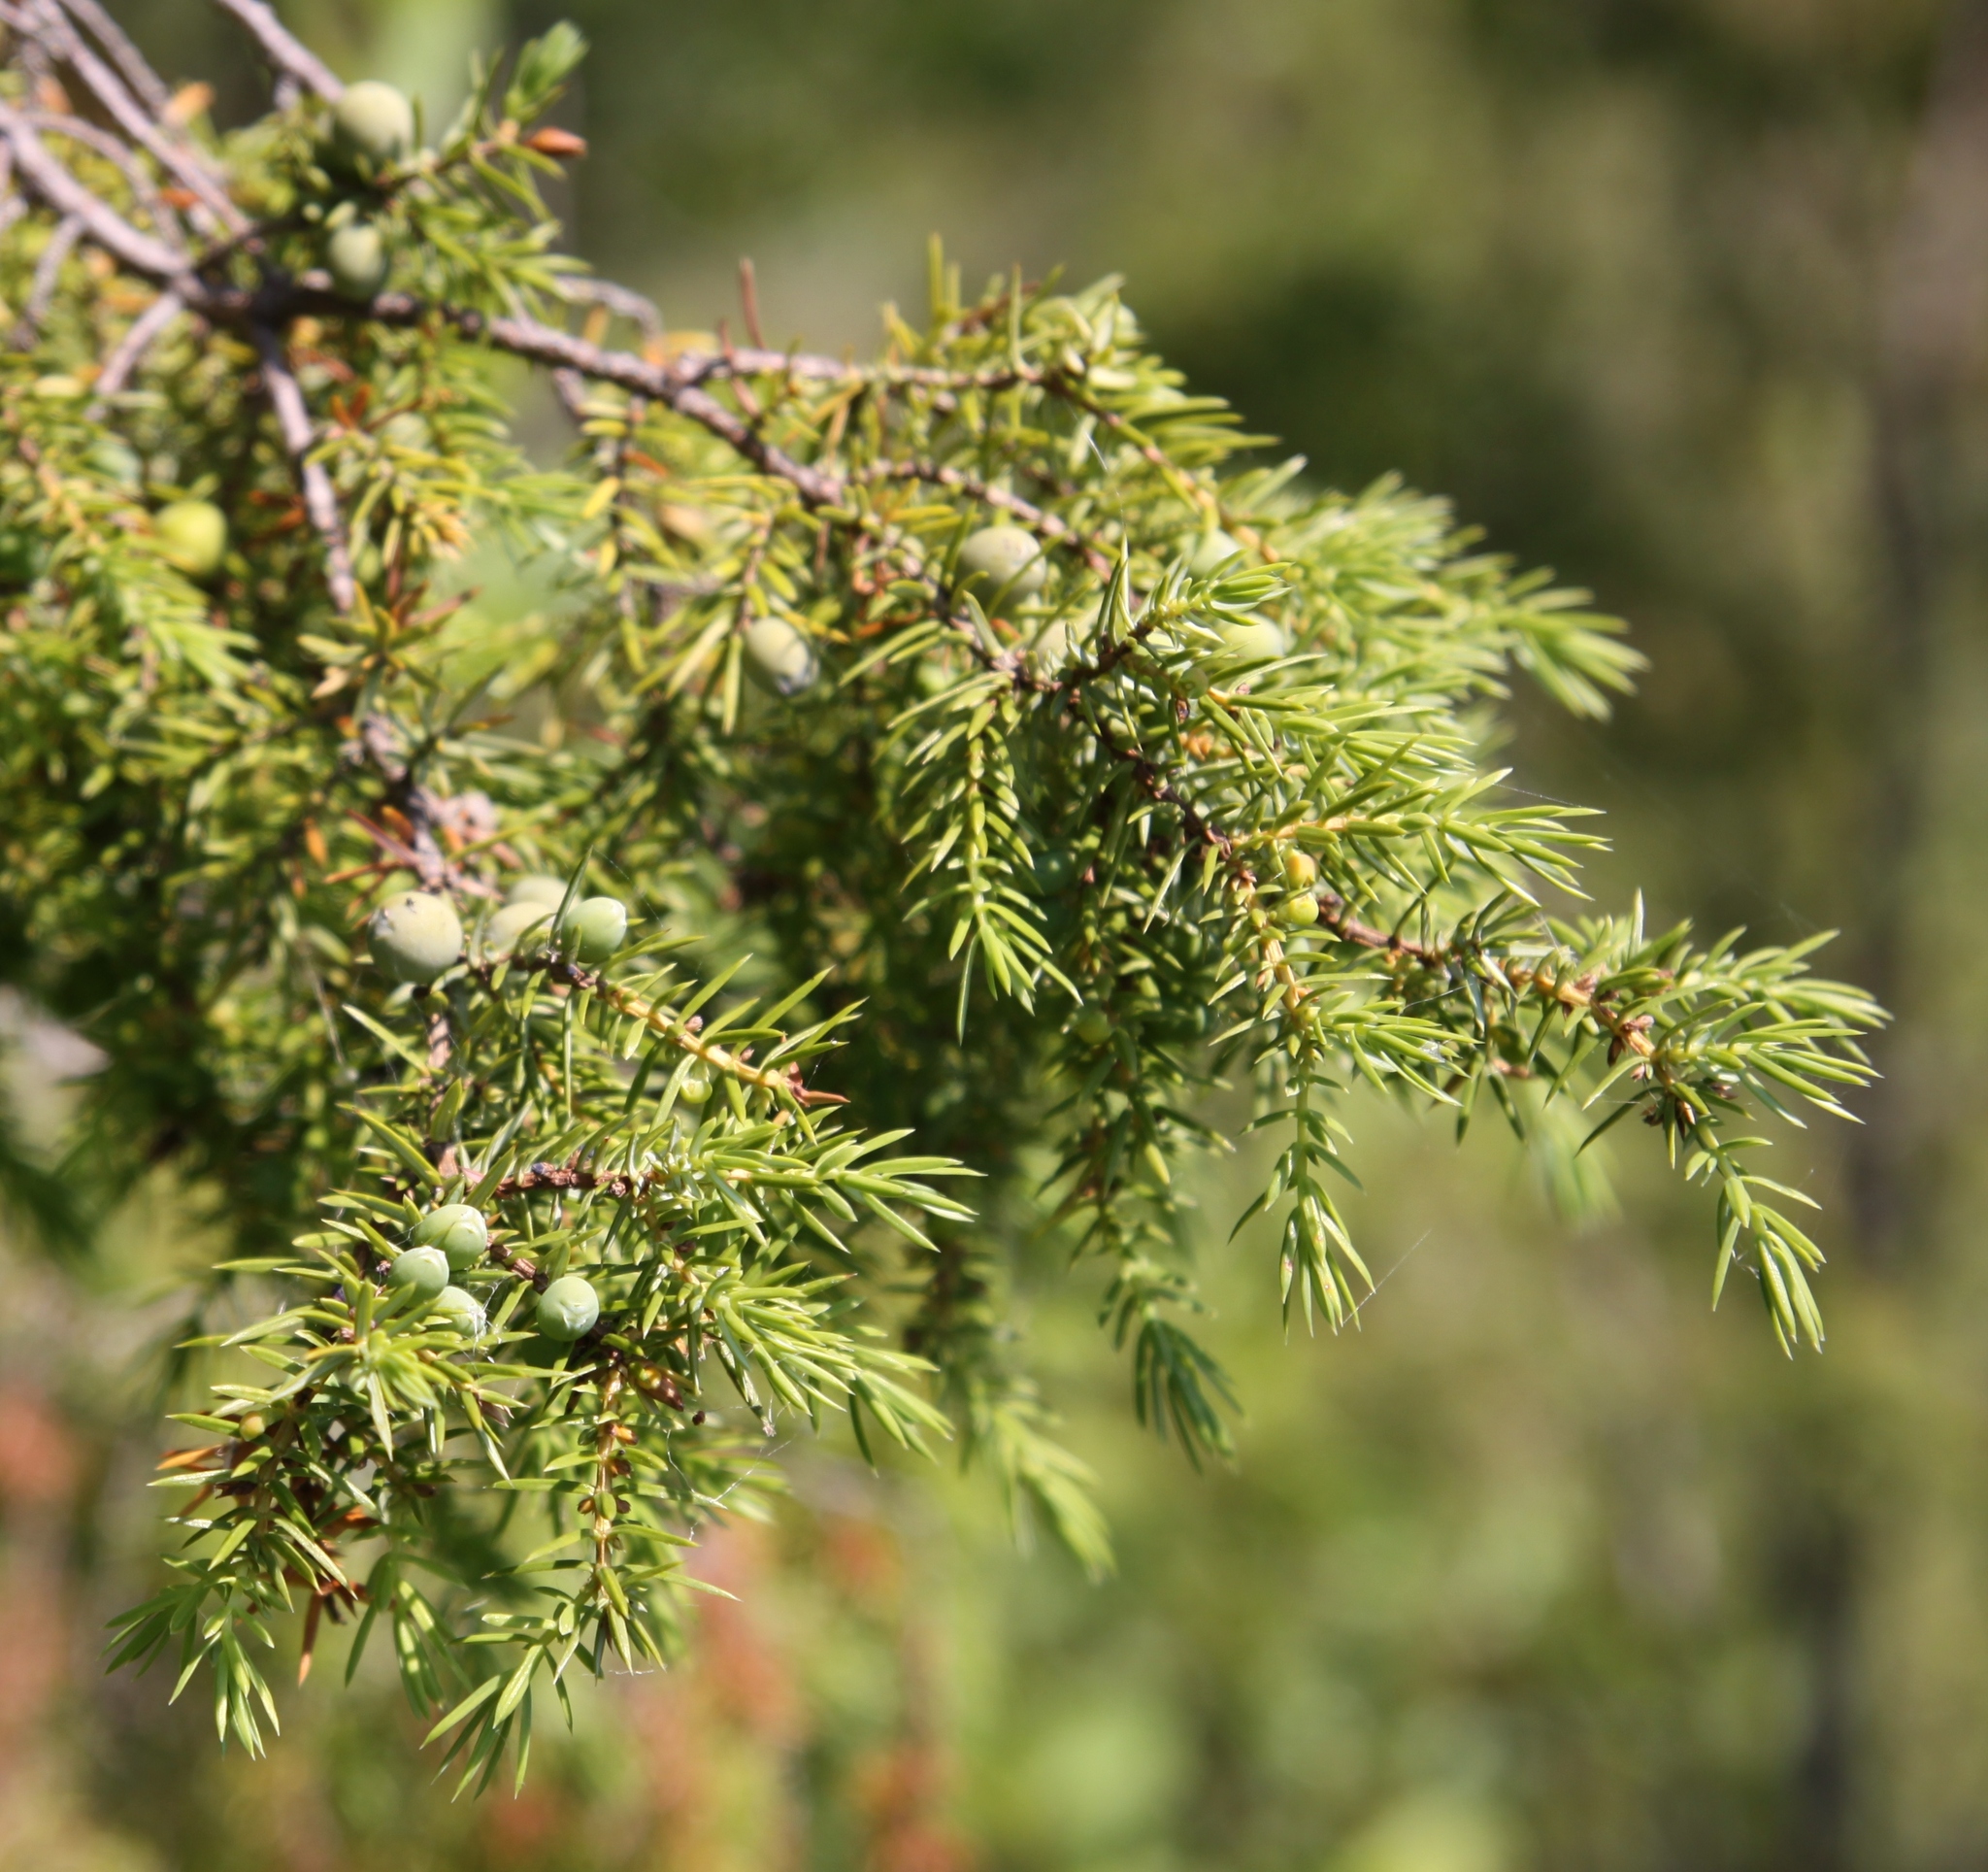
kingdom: Plantae
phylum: Tracheophyta
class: Pinopsida
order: Pinales
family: Cupressaceae
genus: Juniperus
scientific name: Juniperus communis
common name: Common juniper
